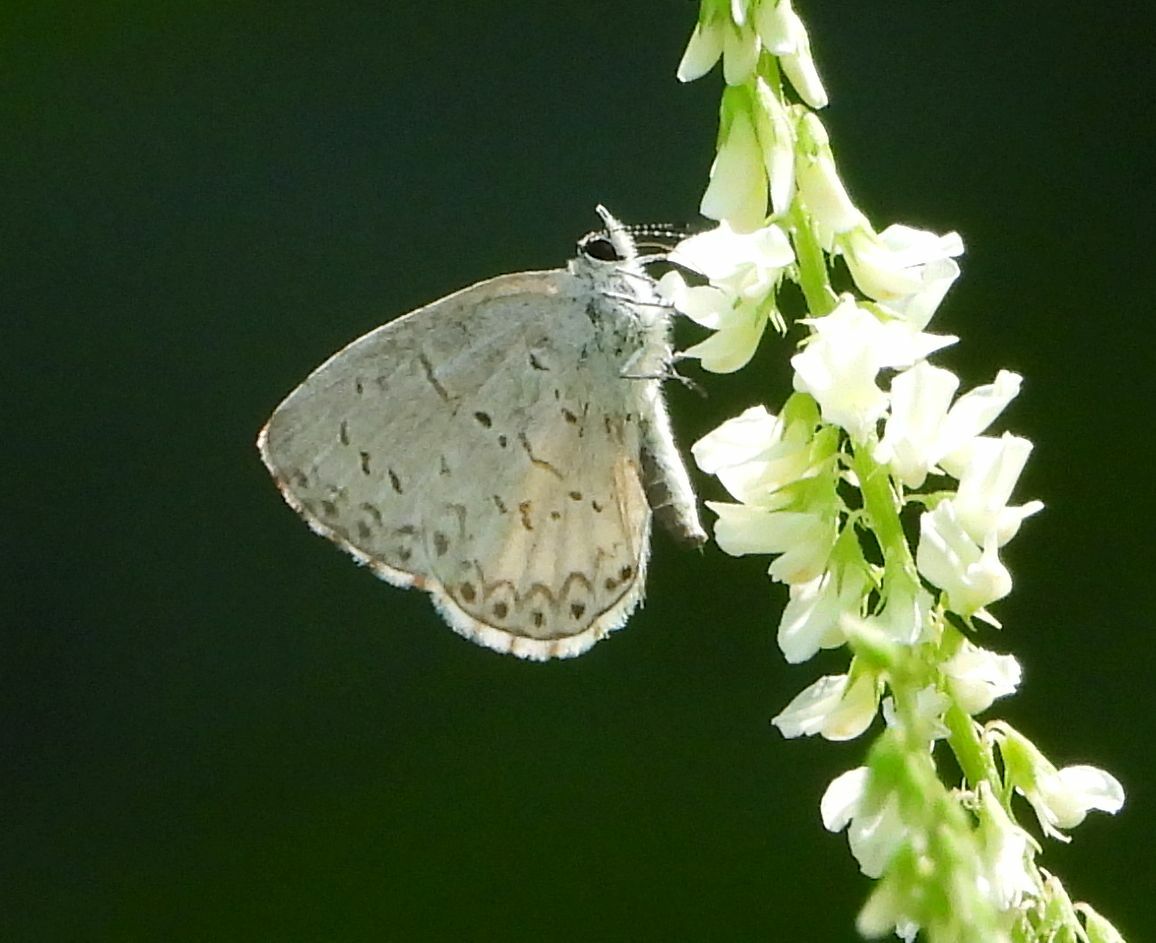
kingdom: Animalia
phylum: Arthropoda
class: Insecta
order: Lepidoptera
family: Lycaenidae
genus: Celastrina
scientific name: Celastrina lucia
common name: Lucia azure
